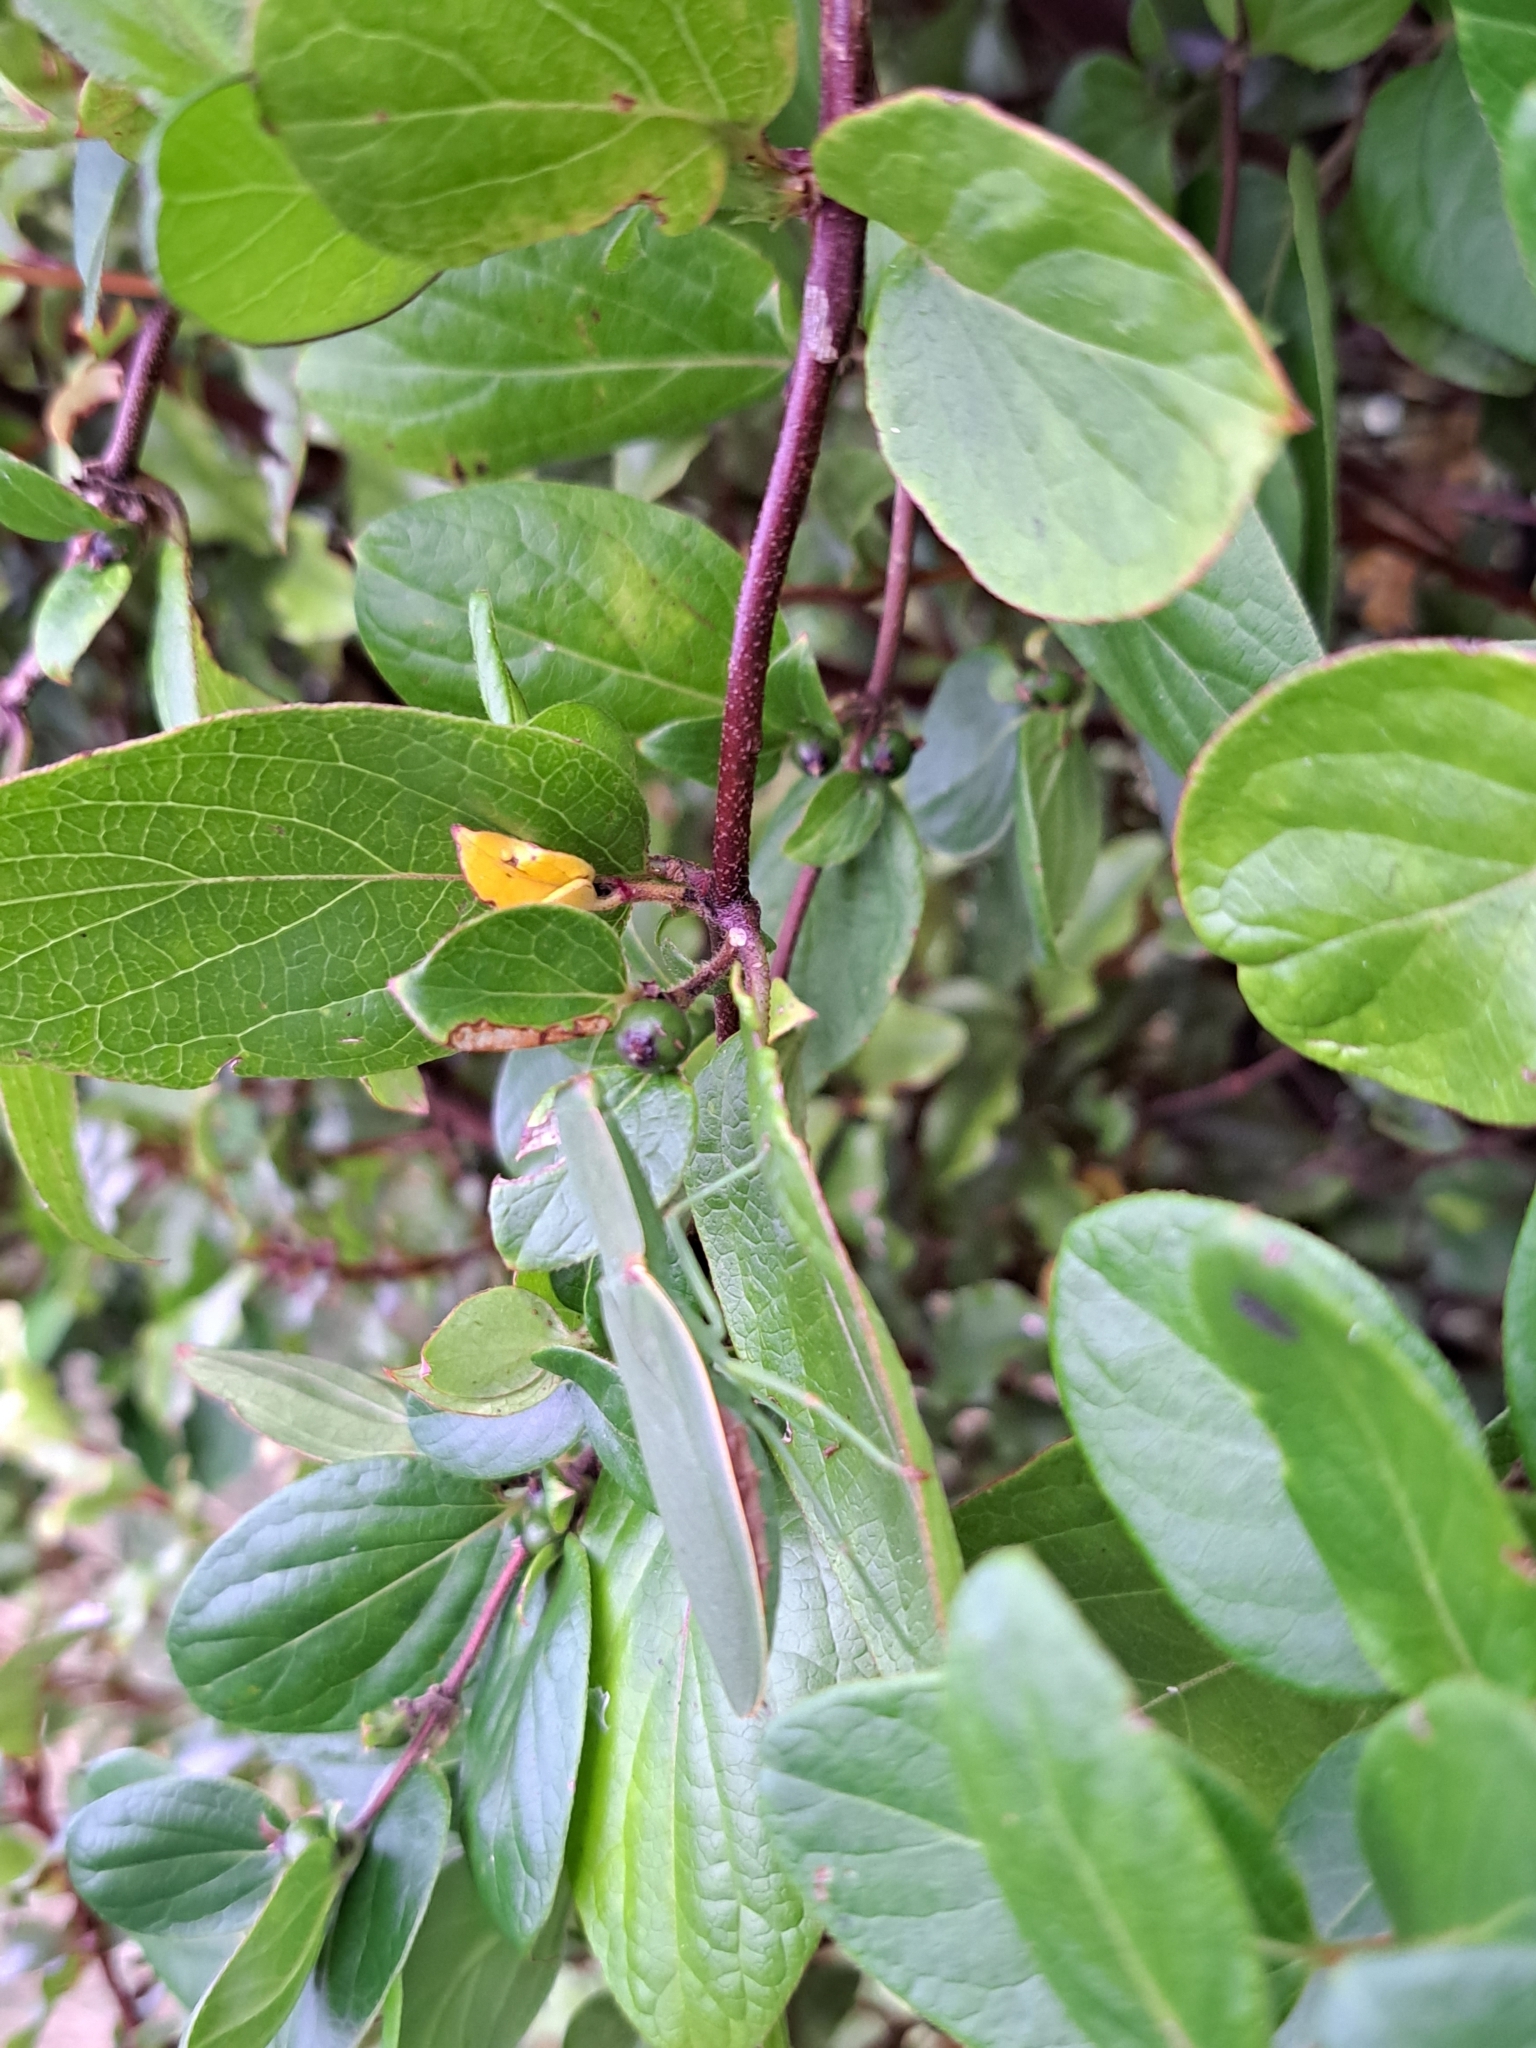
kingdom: Animalia
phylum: Arthropoda
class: Insecta
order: Mantodea
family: Mantidae
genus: Orthodera
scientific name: Orthodera novaezealandiae
